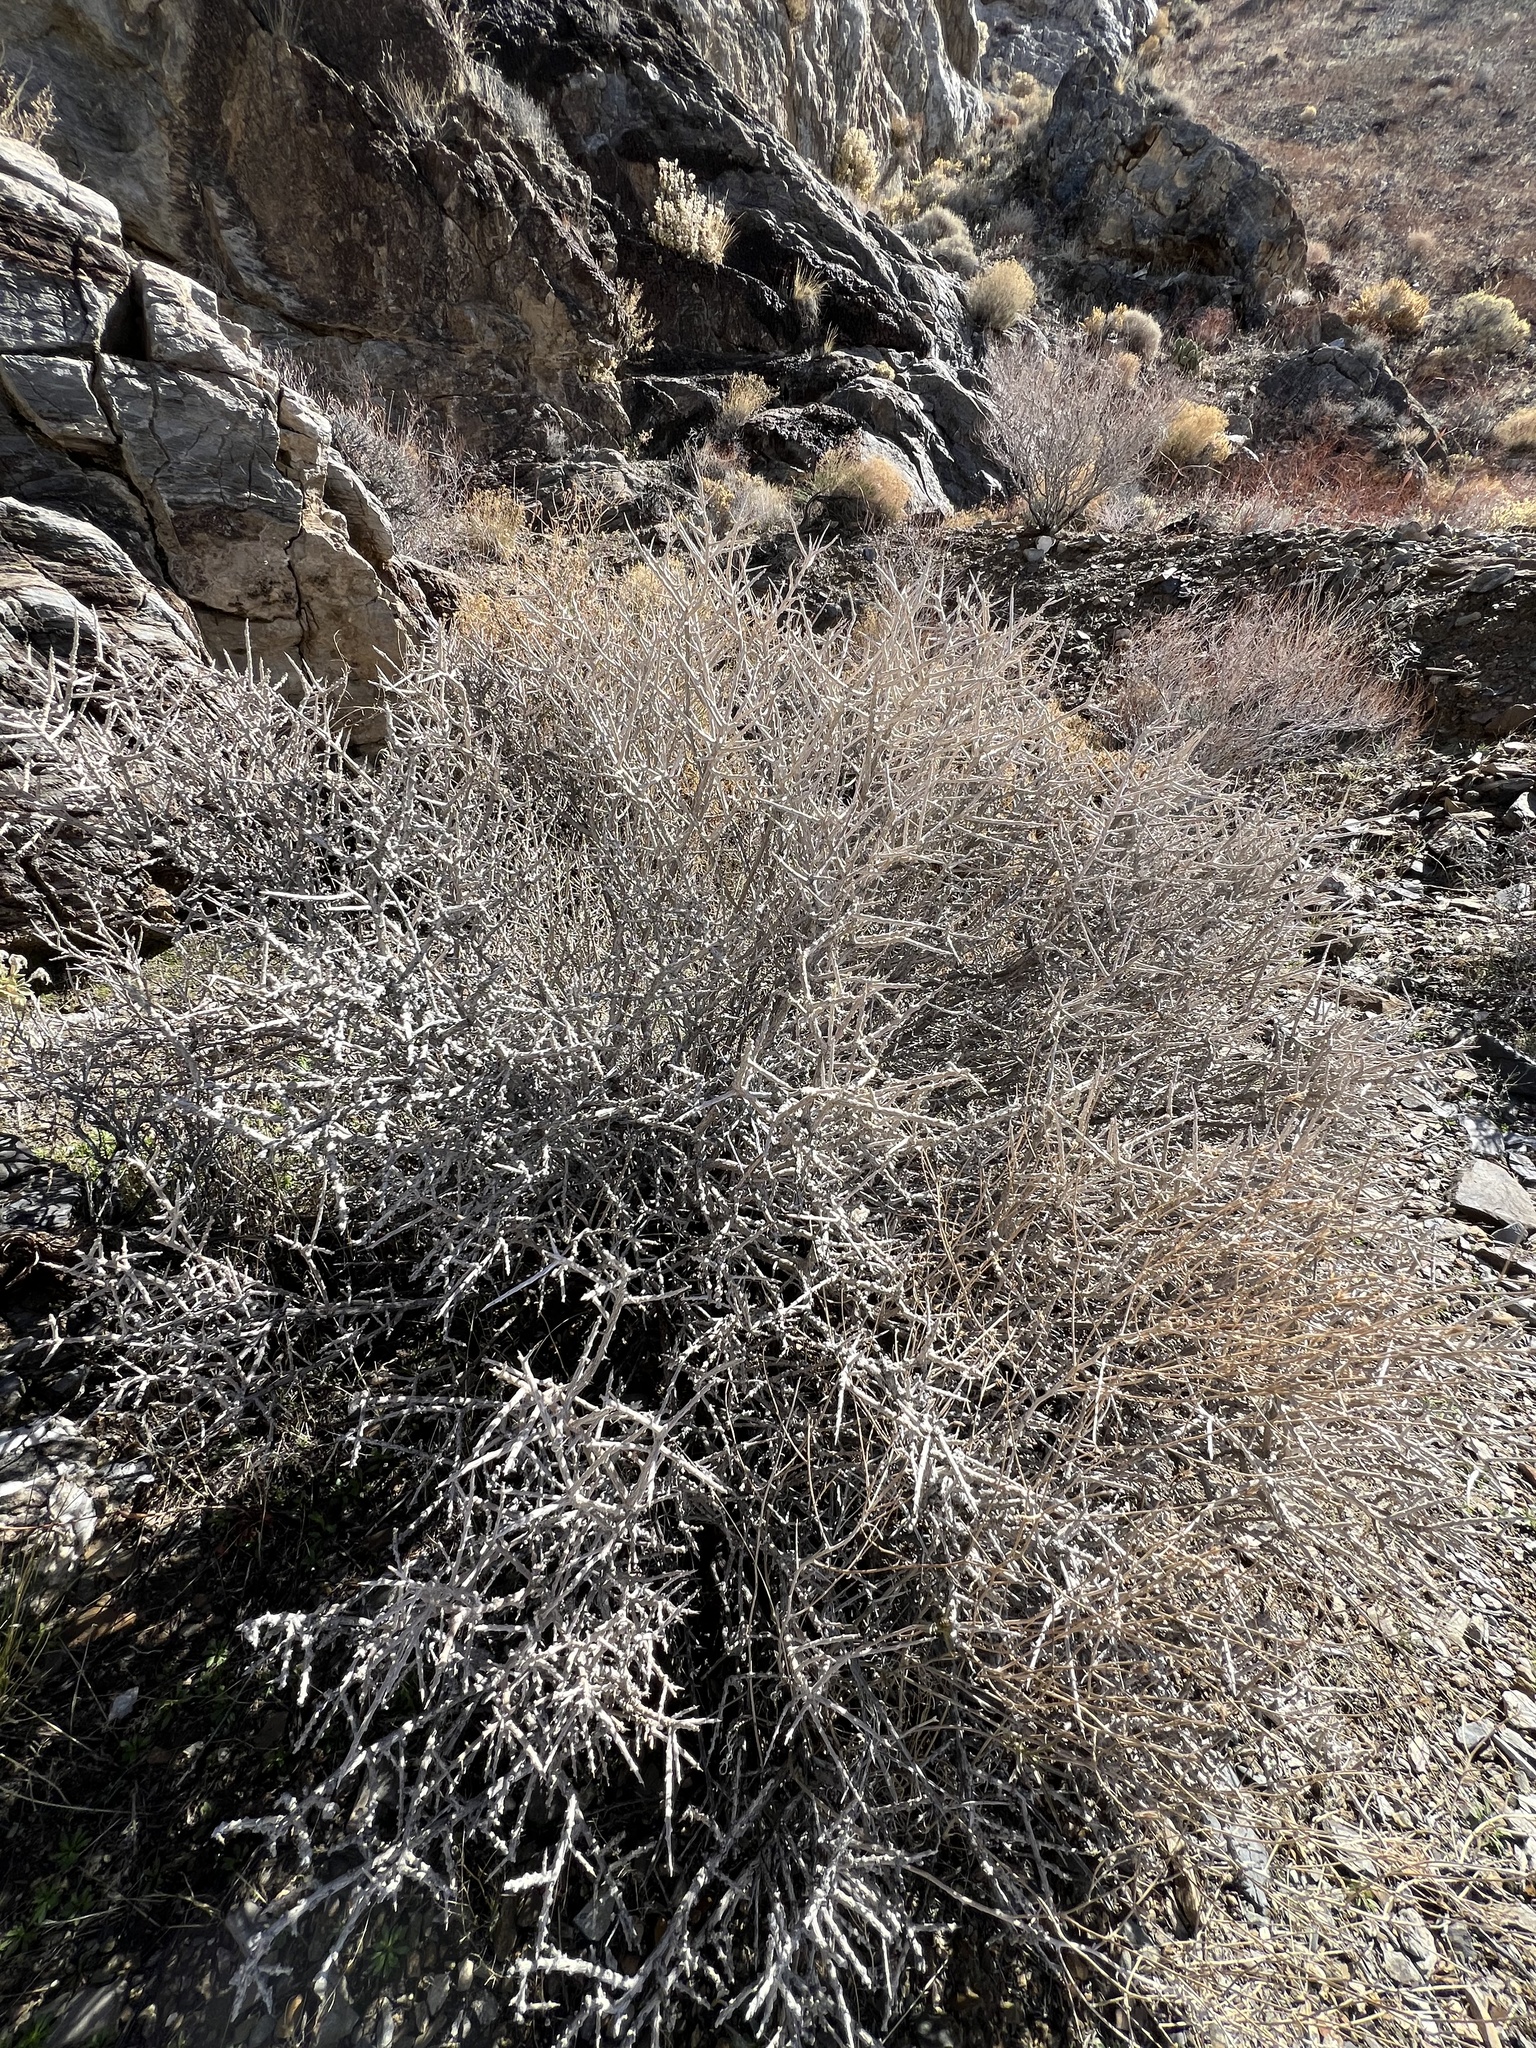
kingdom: Plantae
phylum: Tracheophyta
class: Magnoliopsida
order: Solanales
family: Solanaceae
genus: Lycium
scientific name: Lycium andersonii
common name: Water-jacket
